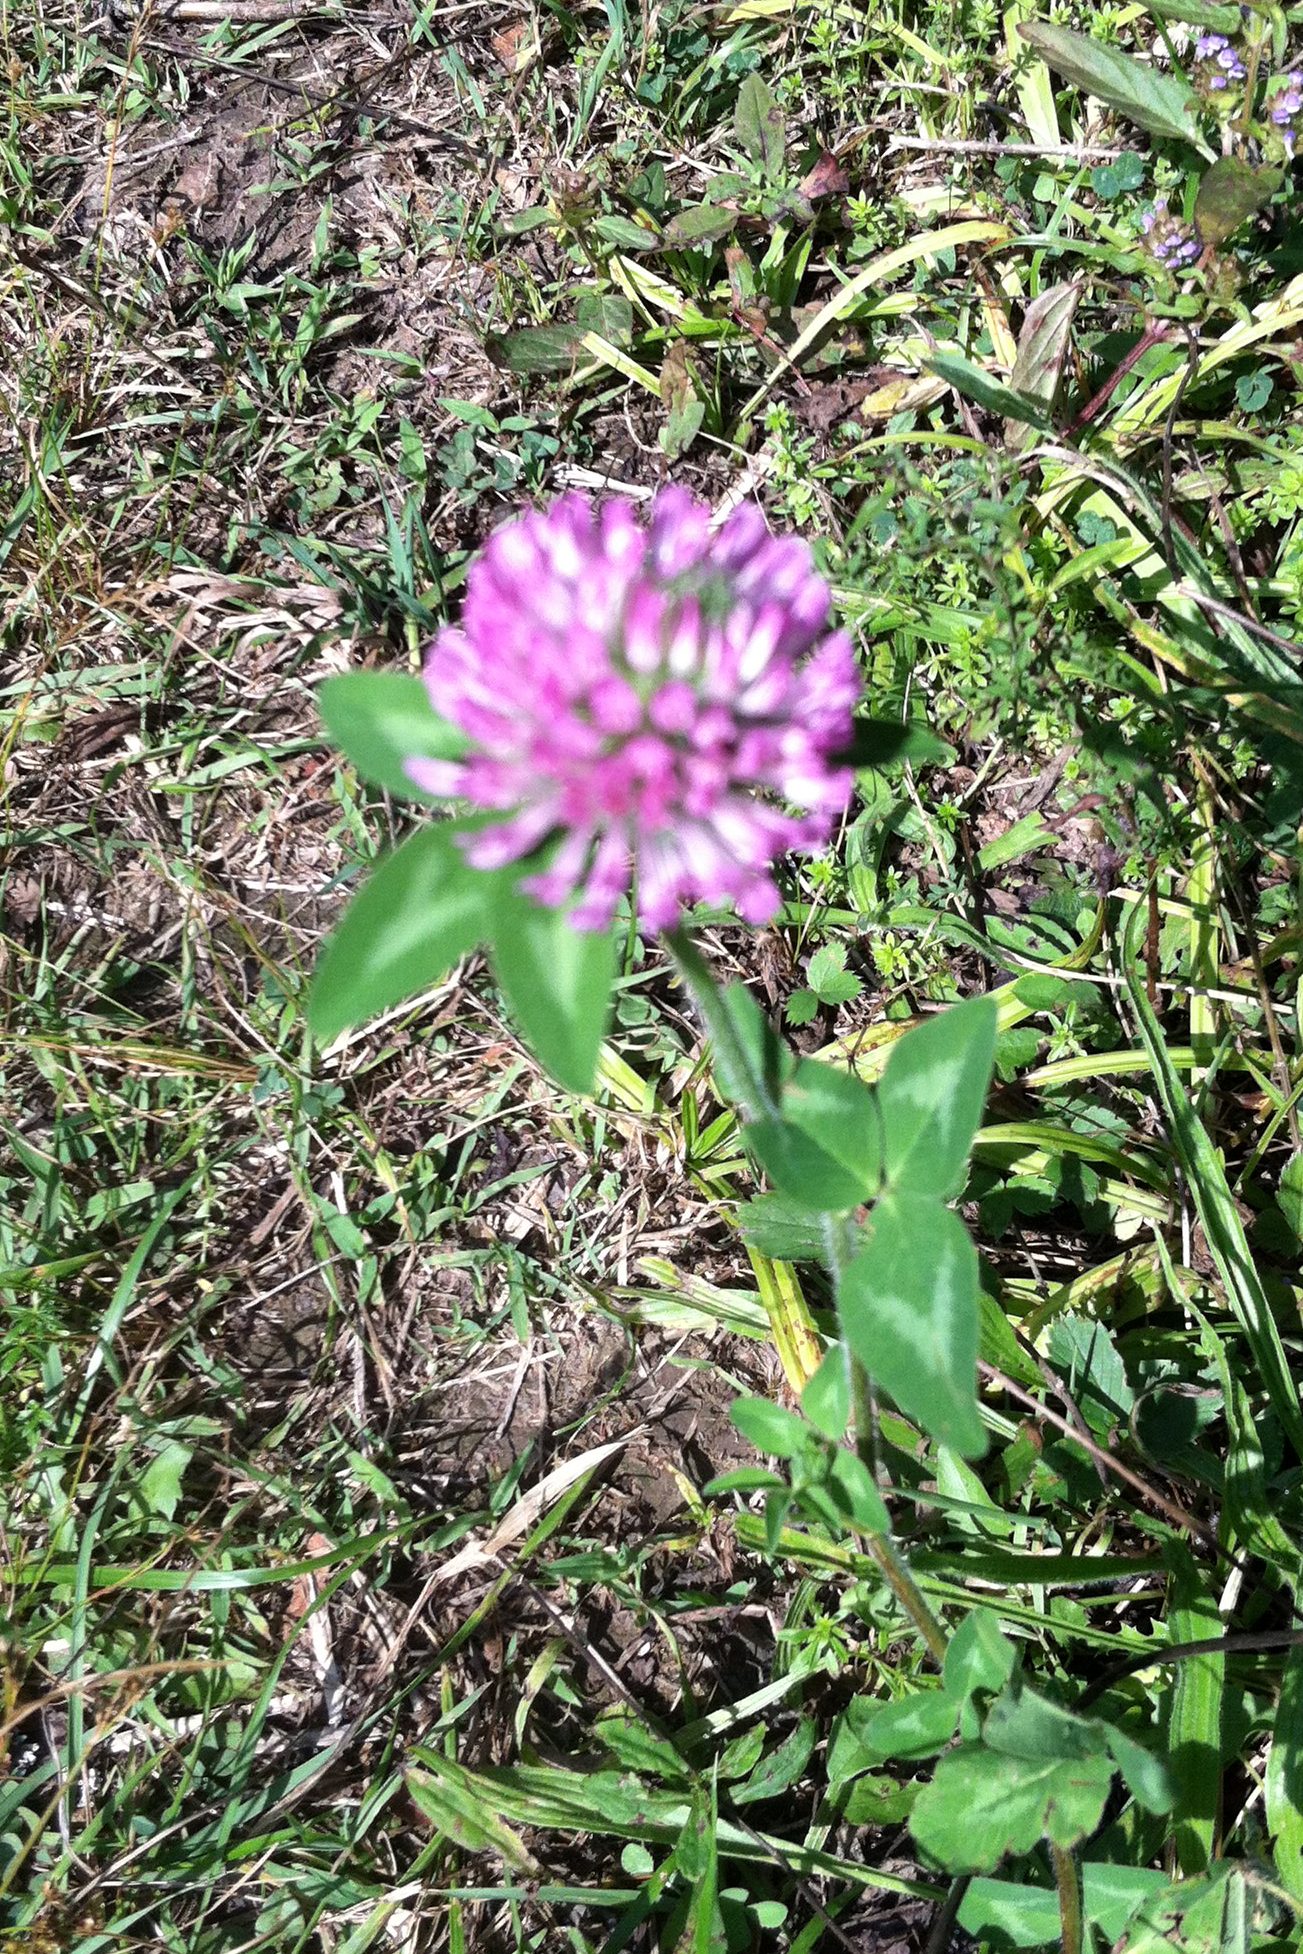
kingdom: Plantae
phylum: Tracheophyta
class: Magnoliopsida
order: Fabales
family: Fabaceae
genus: Trifolium
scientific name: Trifolium pratense
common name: Red clover
